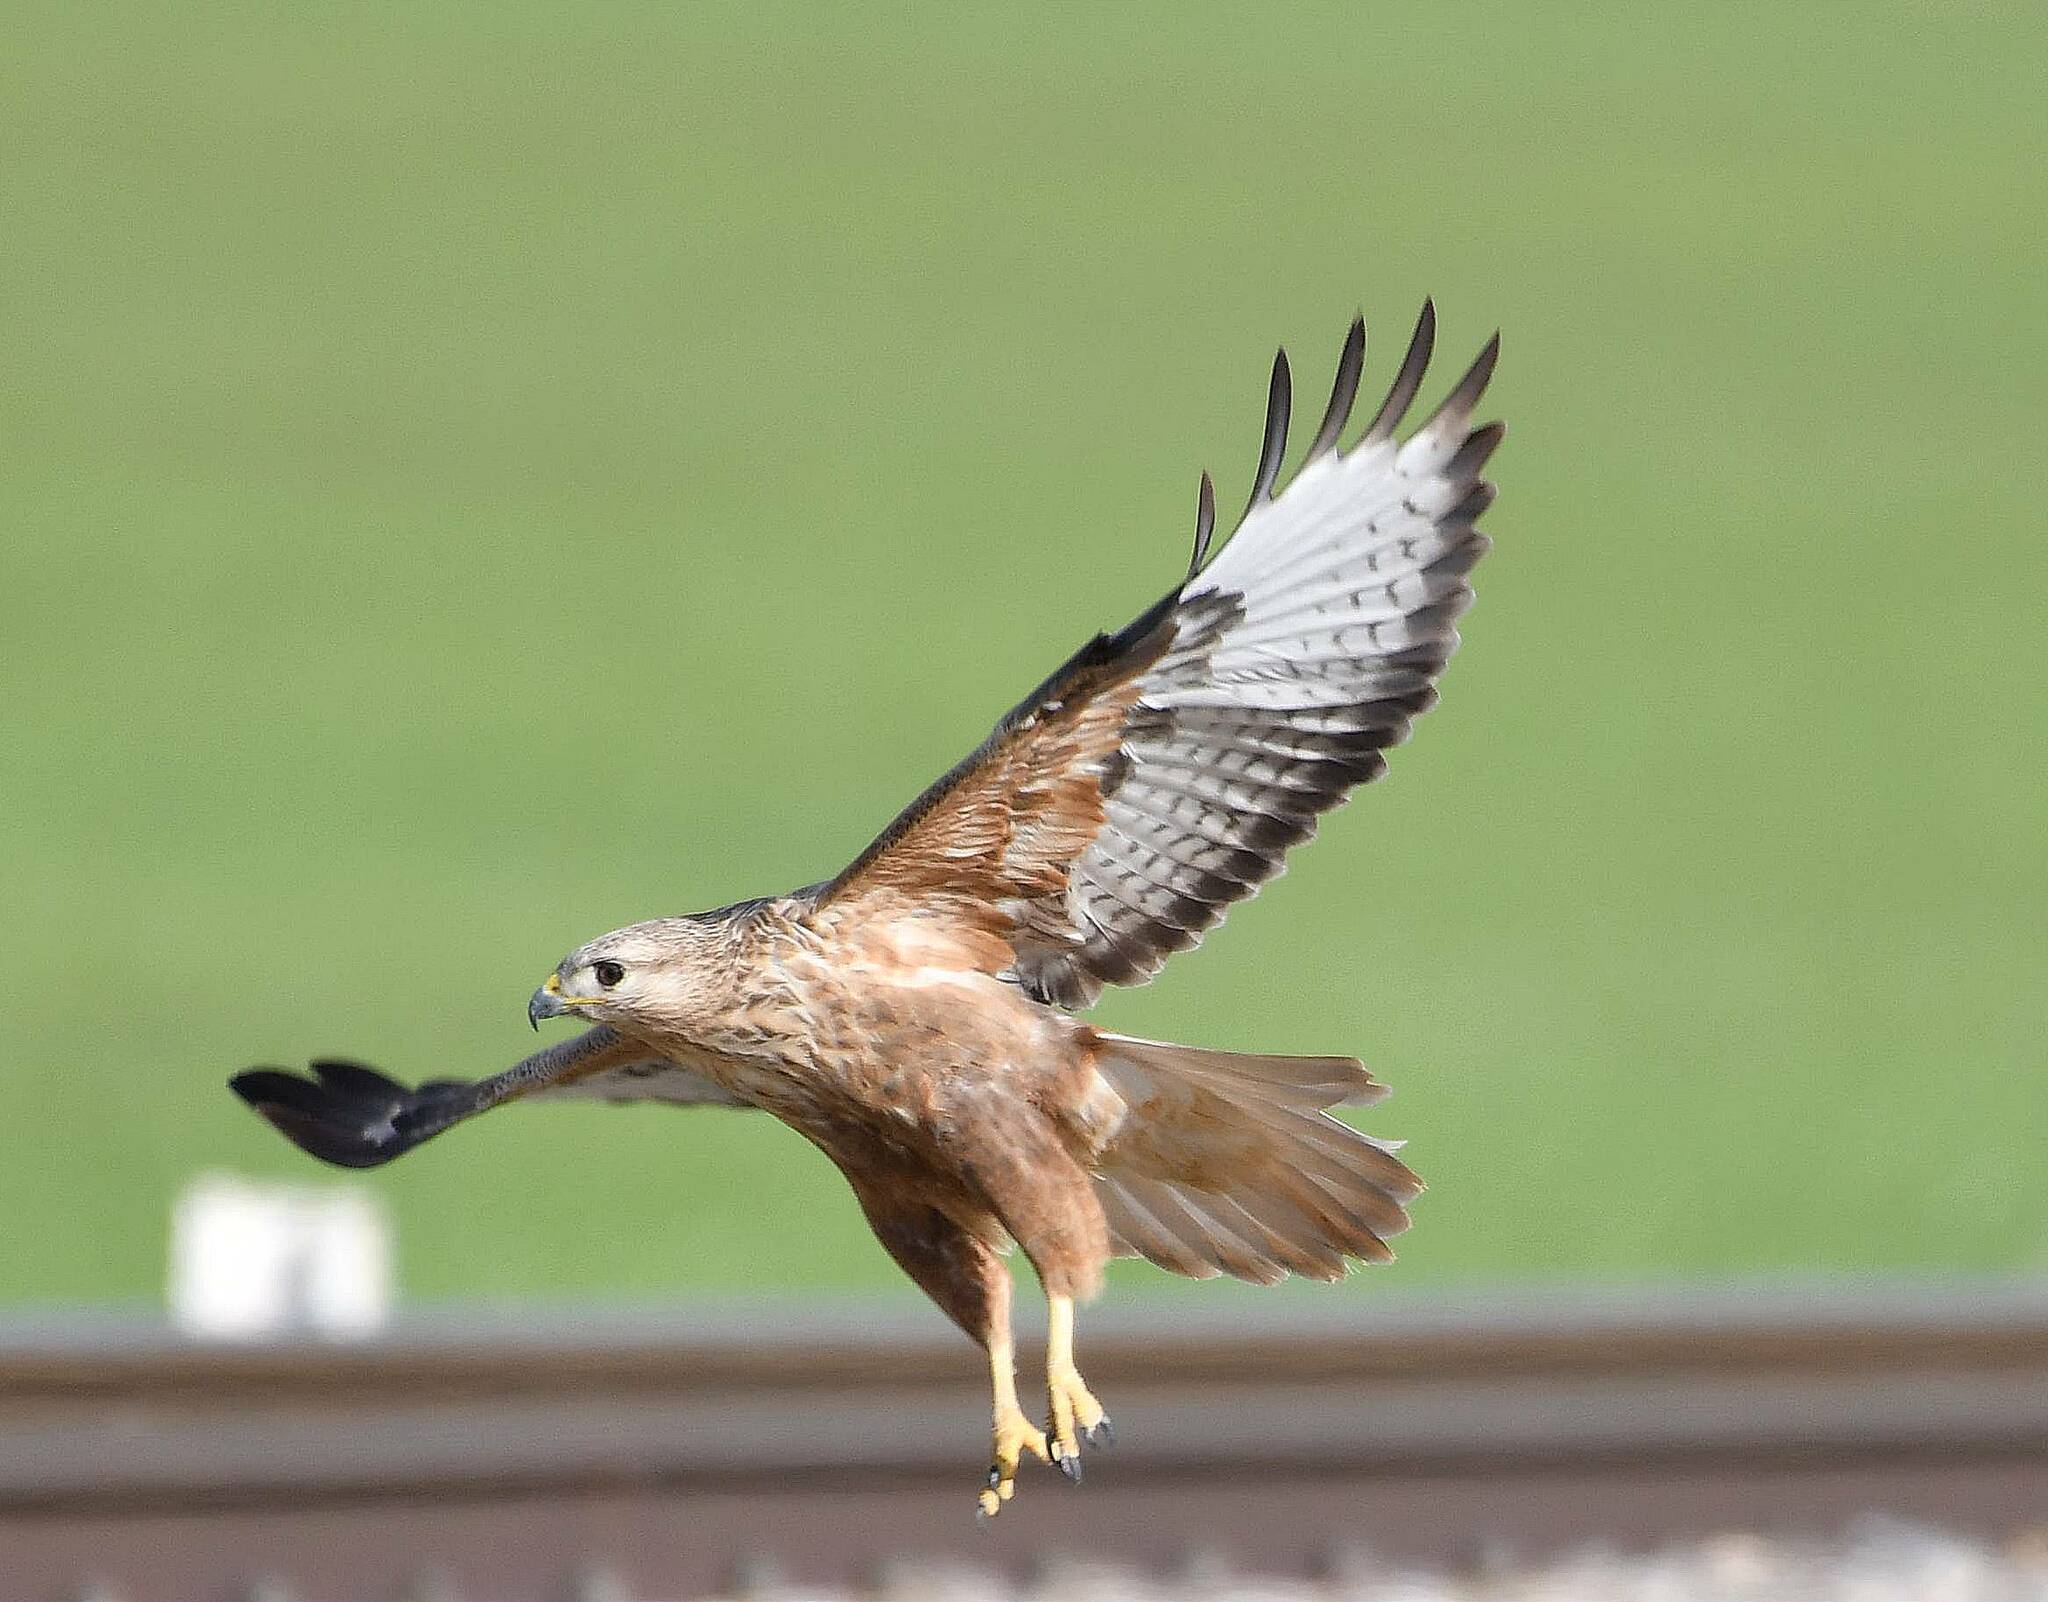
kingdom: Animalia
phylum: Chordata
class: Aves
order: Accipitriformes
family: Accipitridae
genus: Buteo
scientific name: Buteo rufinus
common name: Long-legged buzzard
